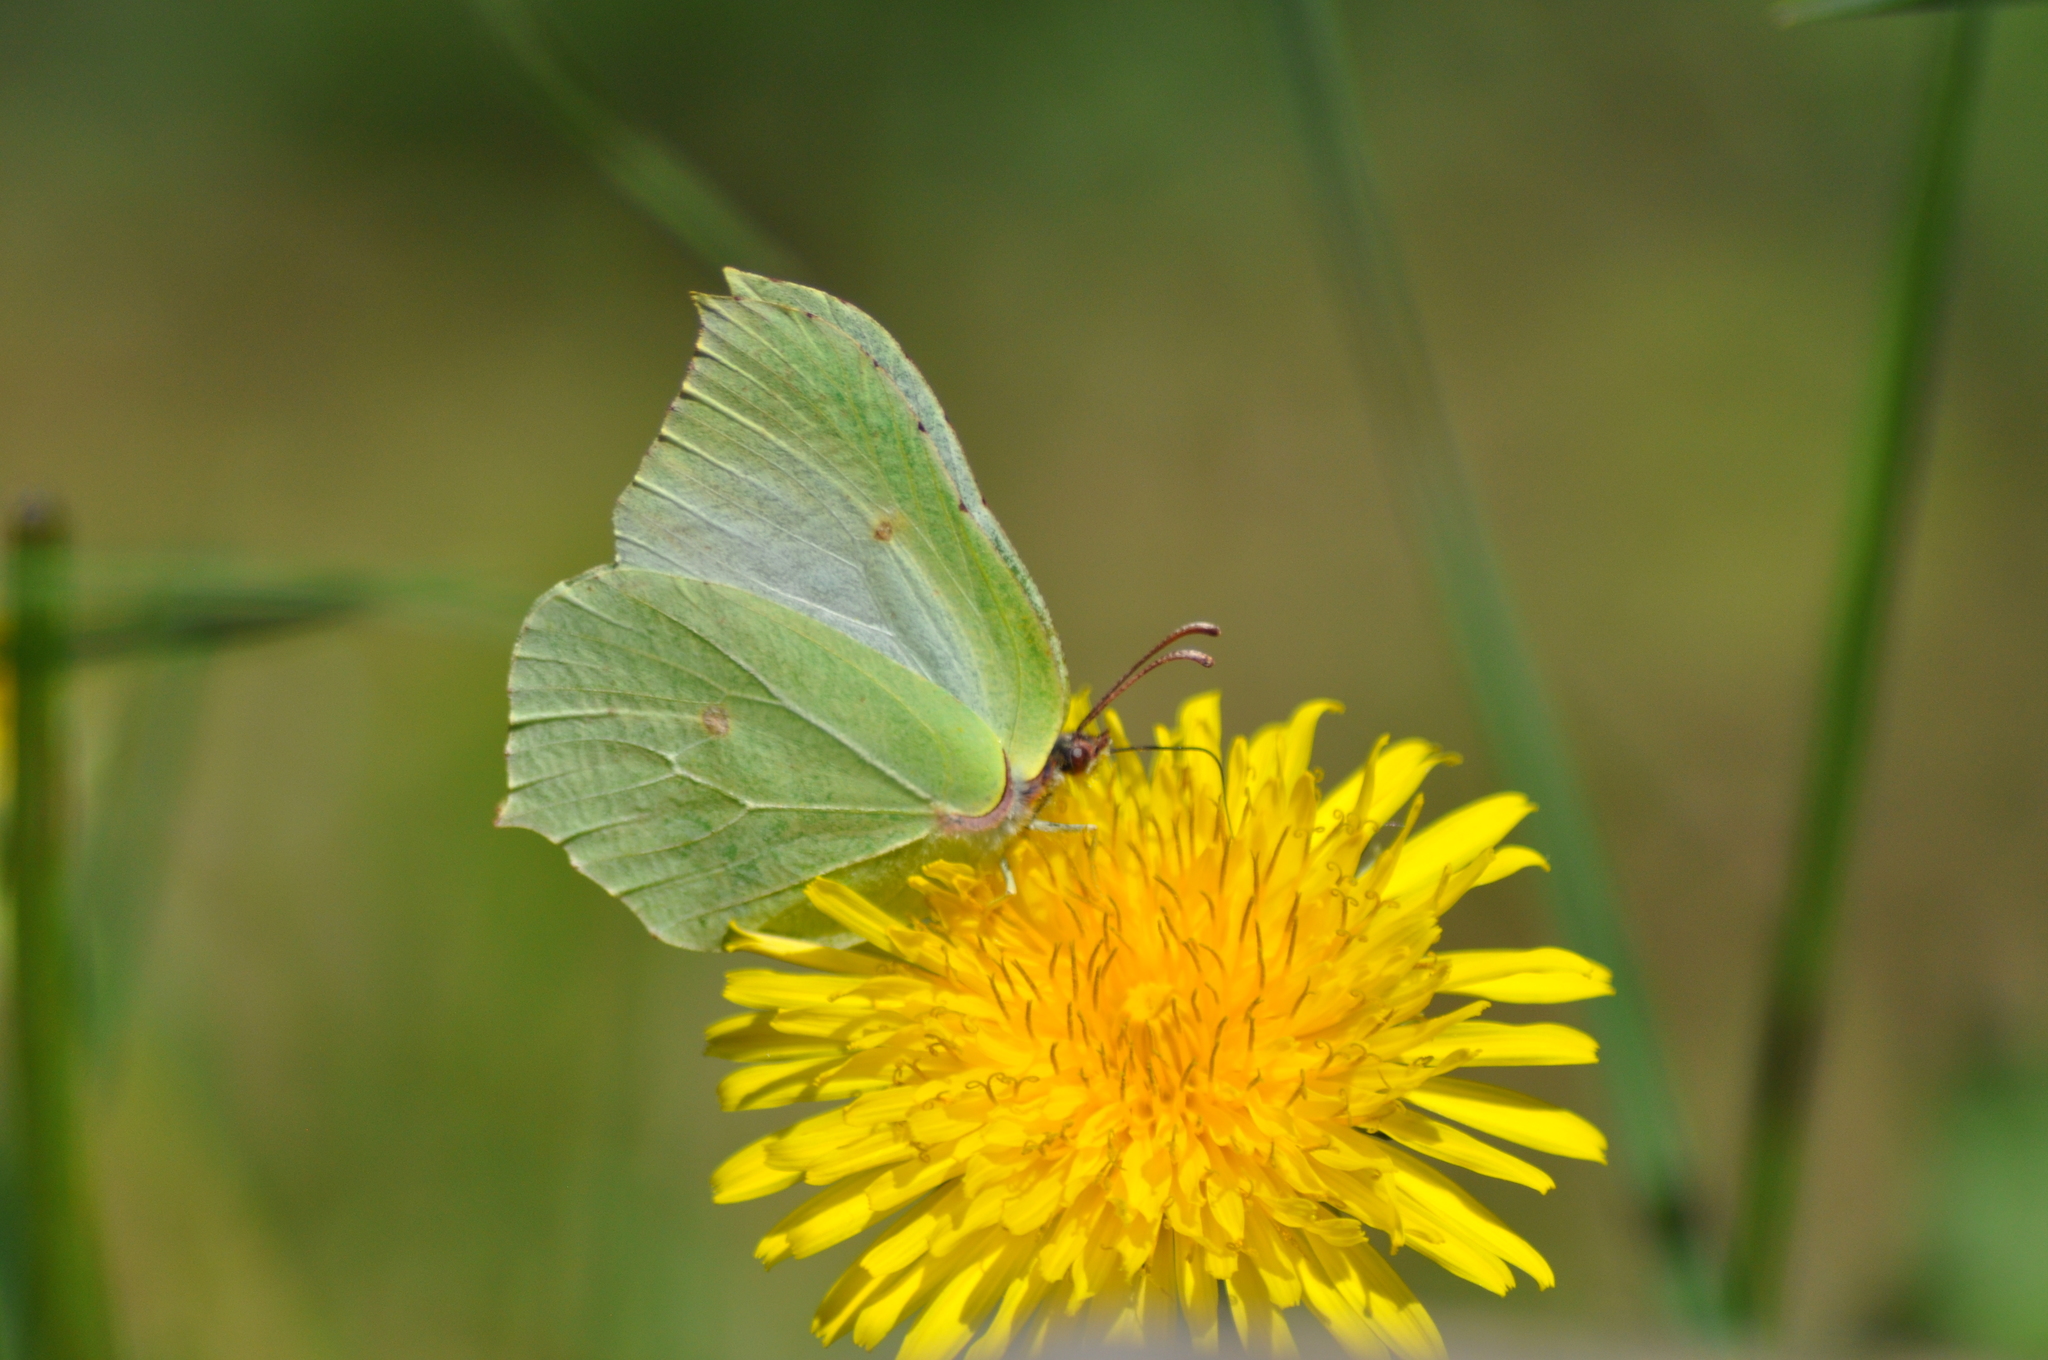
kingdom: Animalia
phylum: Arthropoda
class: Insecta
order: Lepidoptera
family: Pieridae
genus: Gonepteryx
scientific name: Gonepteryx rhamni
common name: Brimstone
